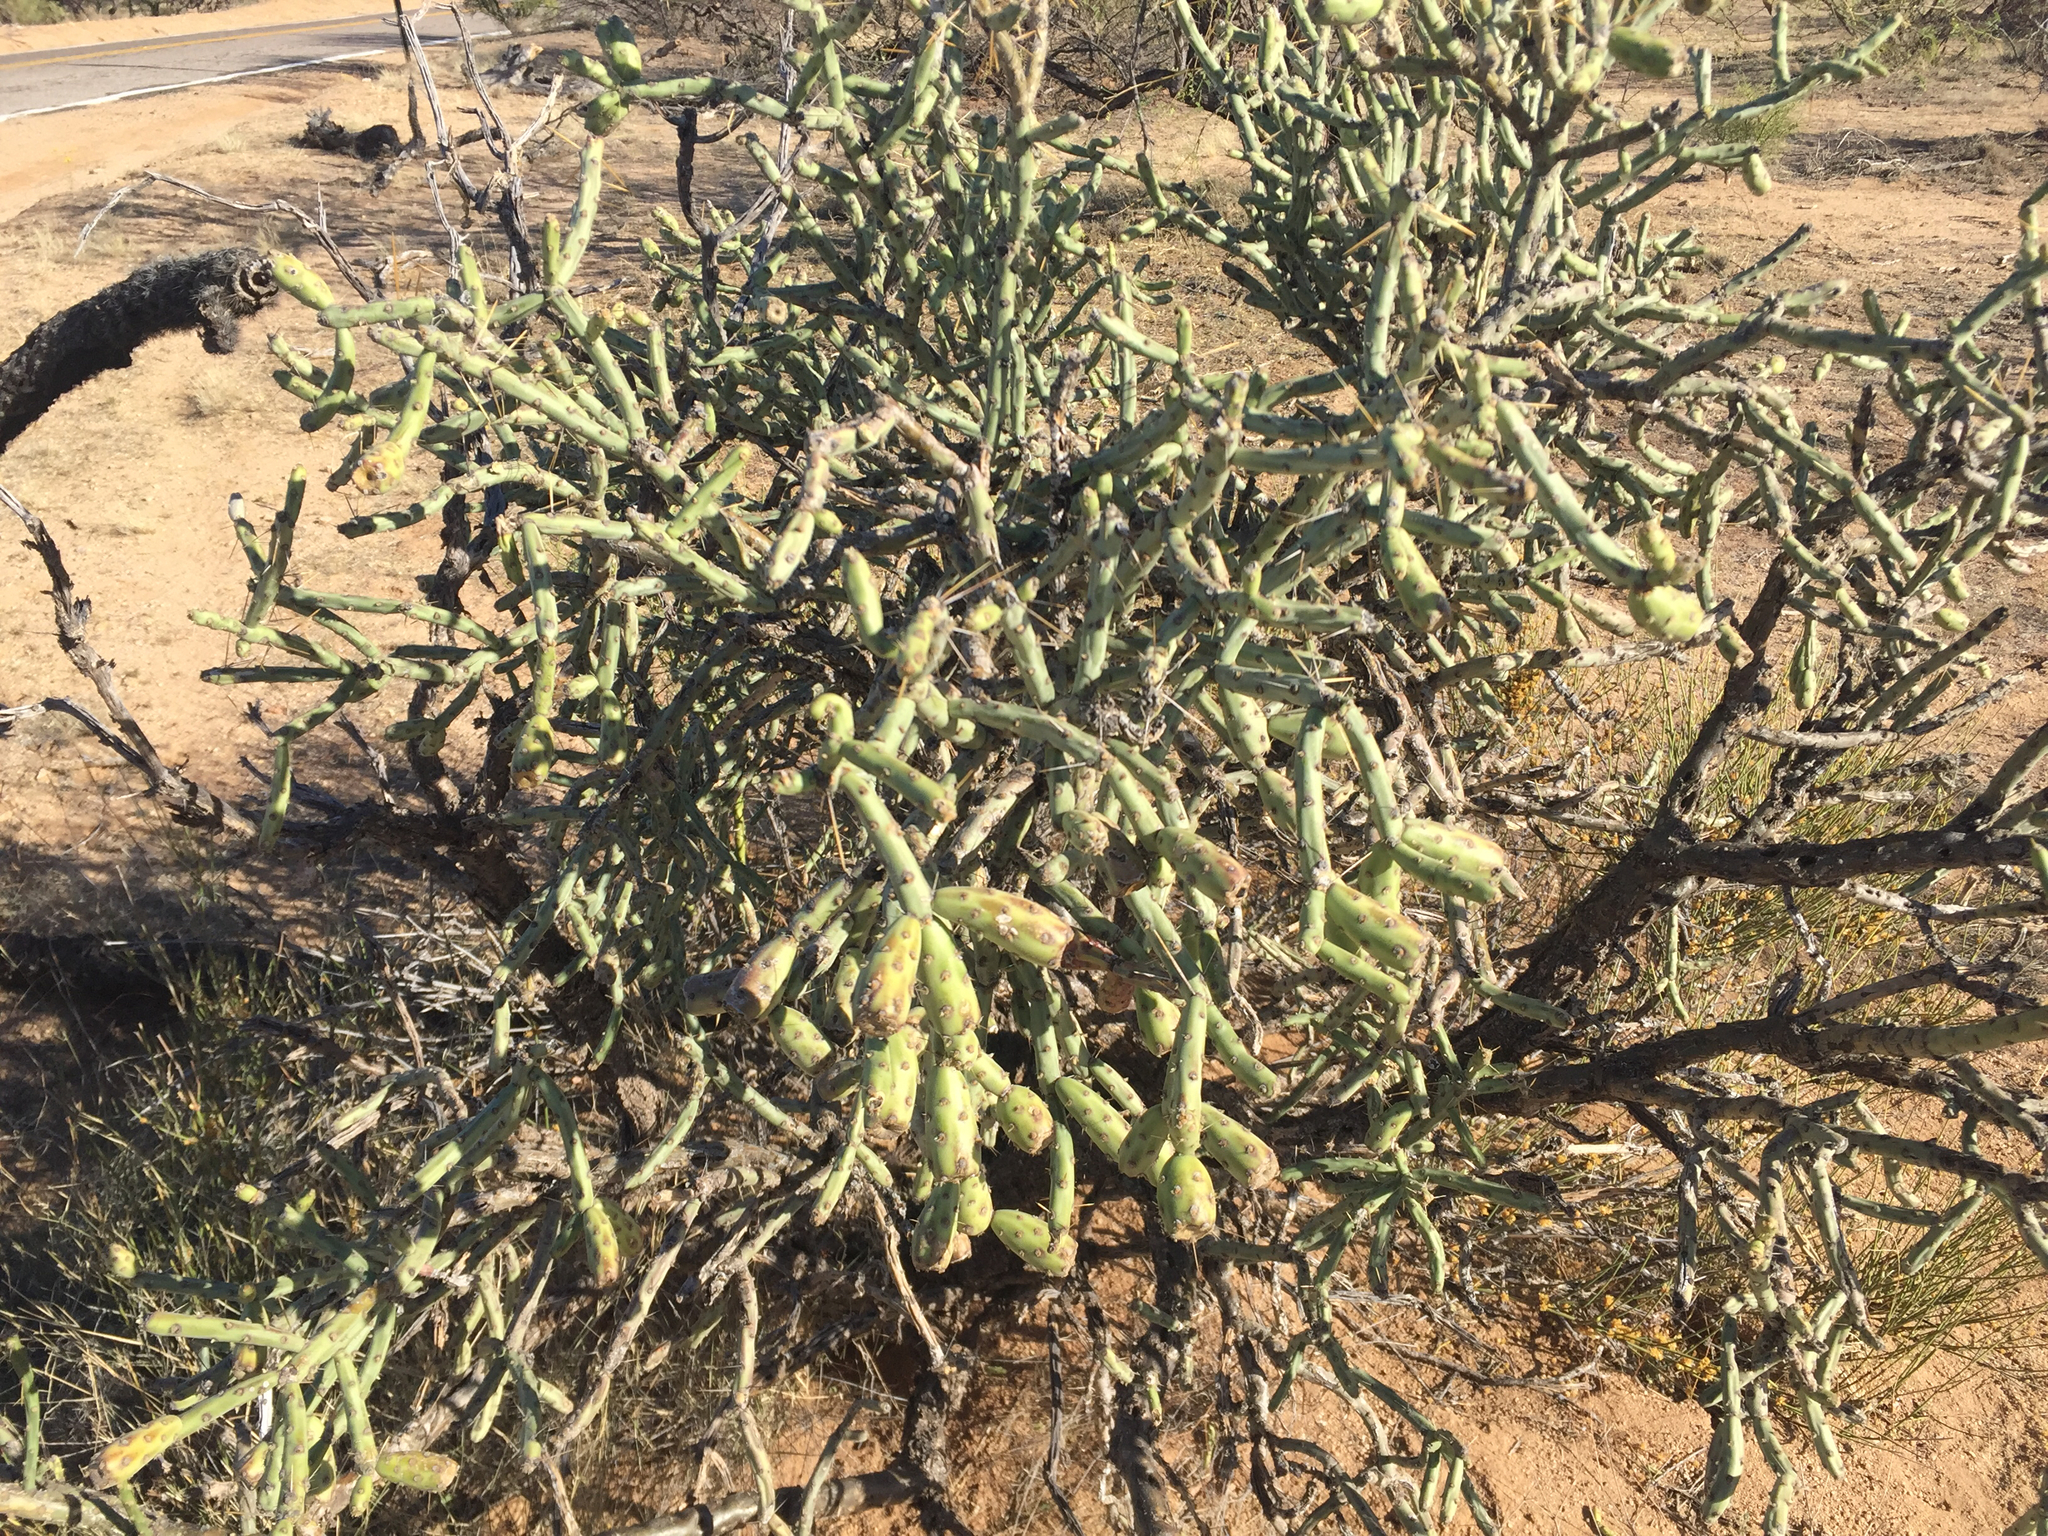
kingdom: Plantae
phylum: Tracheophyta
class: Magnoliopsida
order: Caryophyllales
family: Cactaceae
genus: Cylindropuntia
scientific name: Cylindropuntia arbuscula
